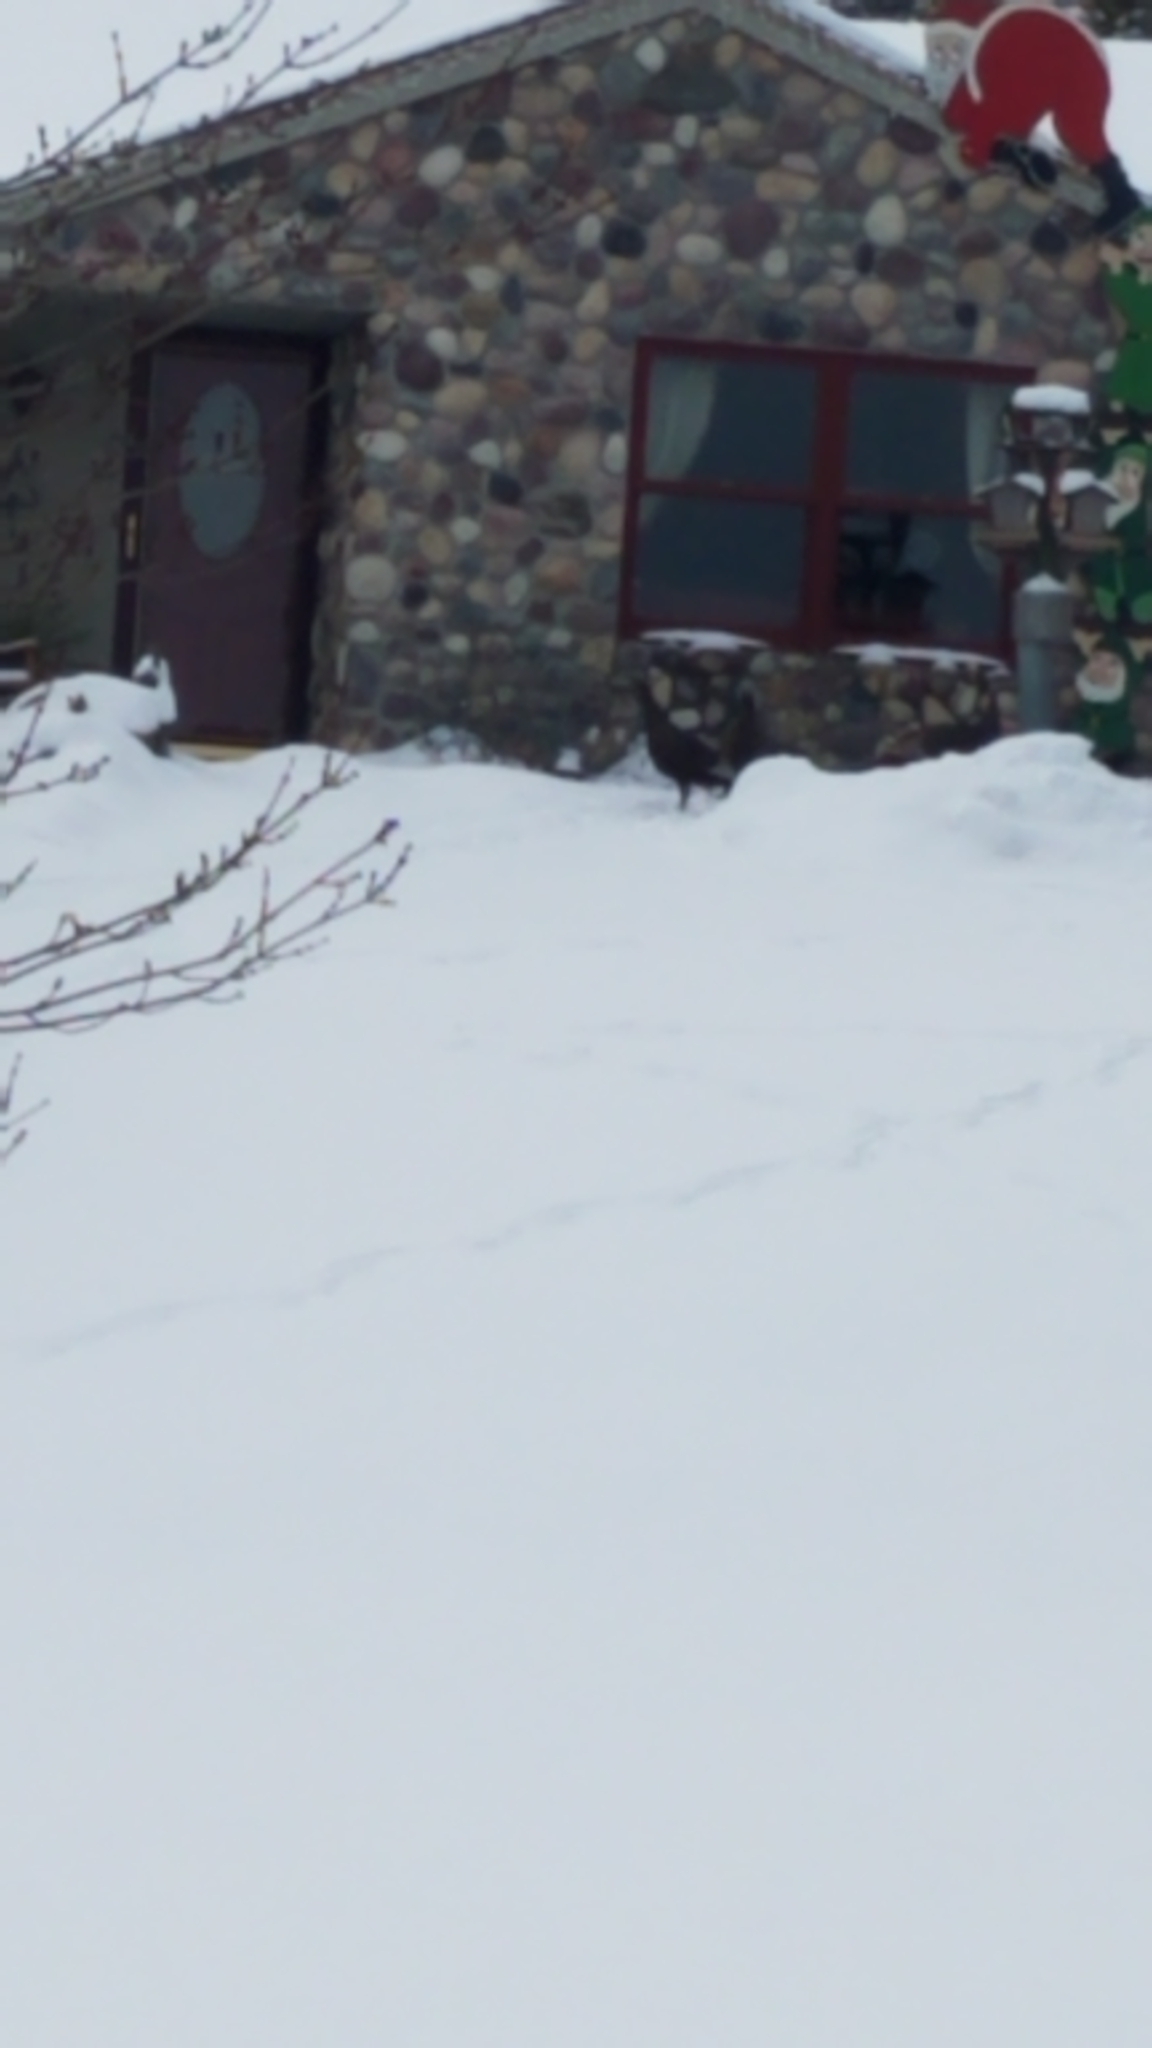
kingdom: Animalia
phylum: Chordata
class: Aves
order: Galliformes
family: Phasianidae
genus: Meleagris
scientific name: Meleagris gallopavo
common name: Wild turkey
